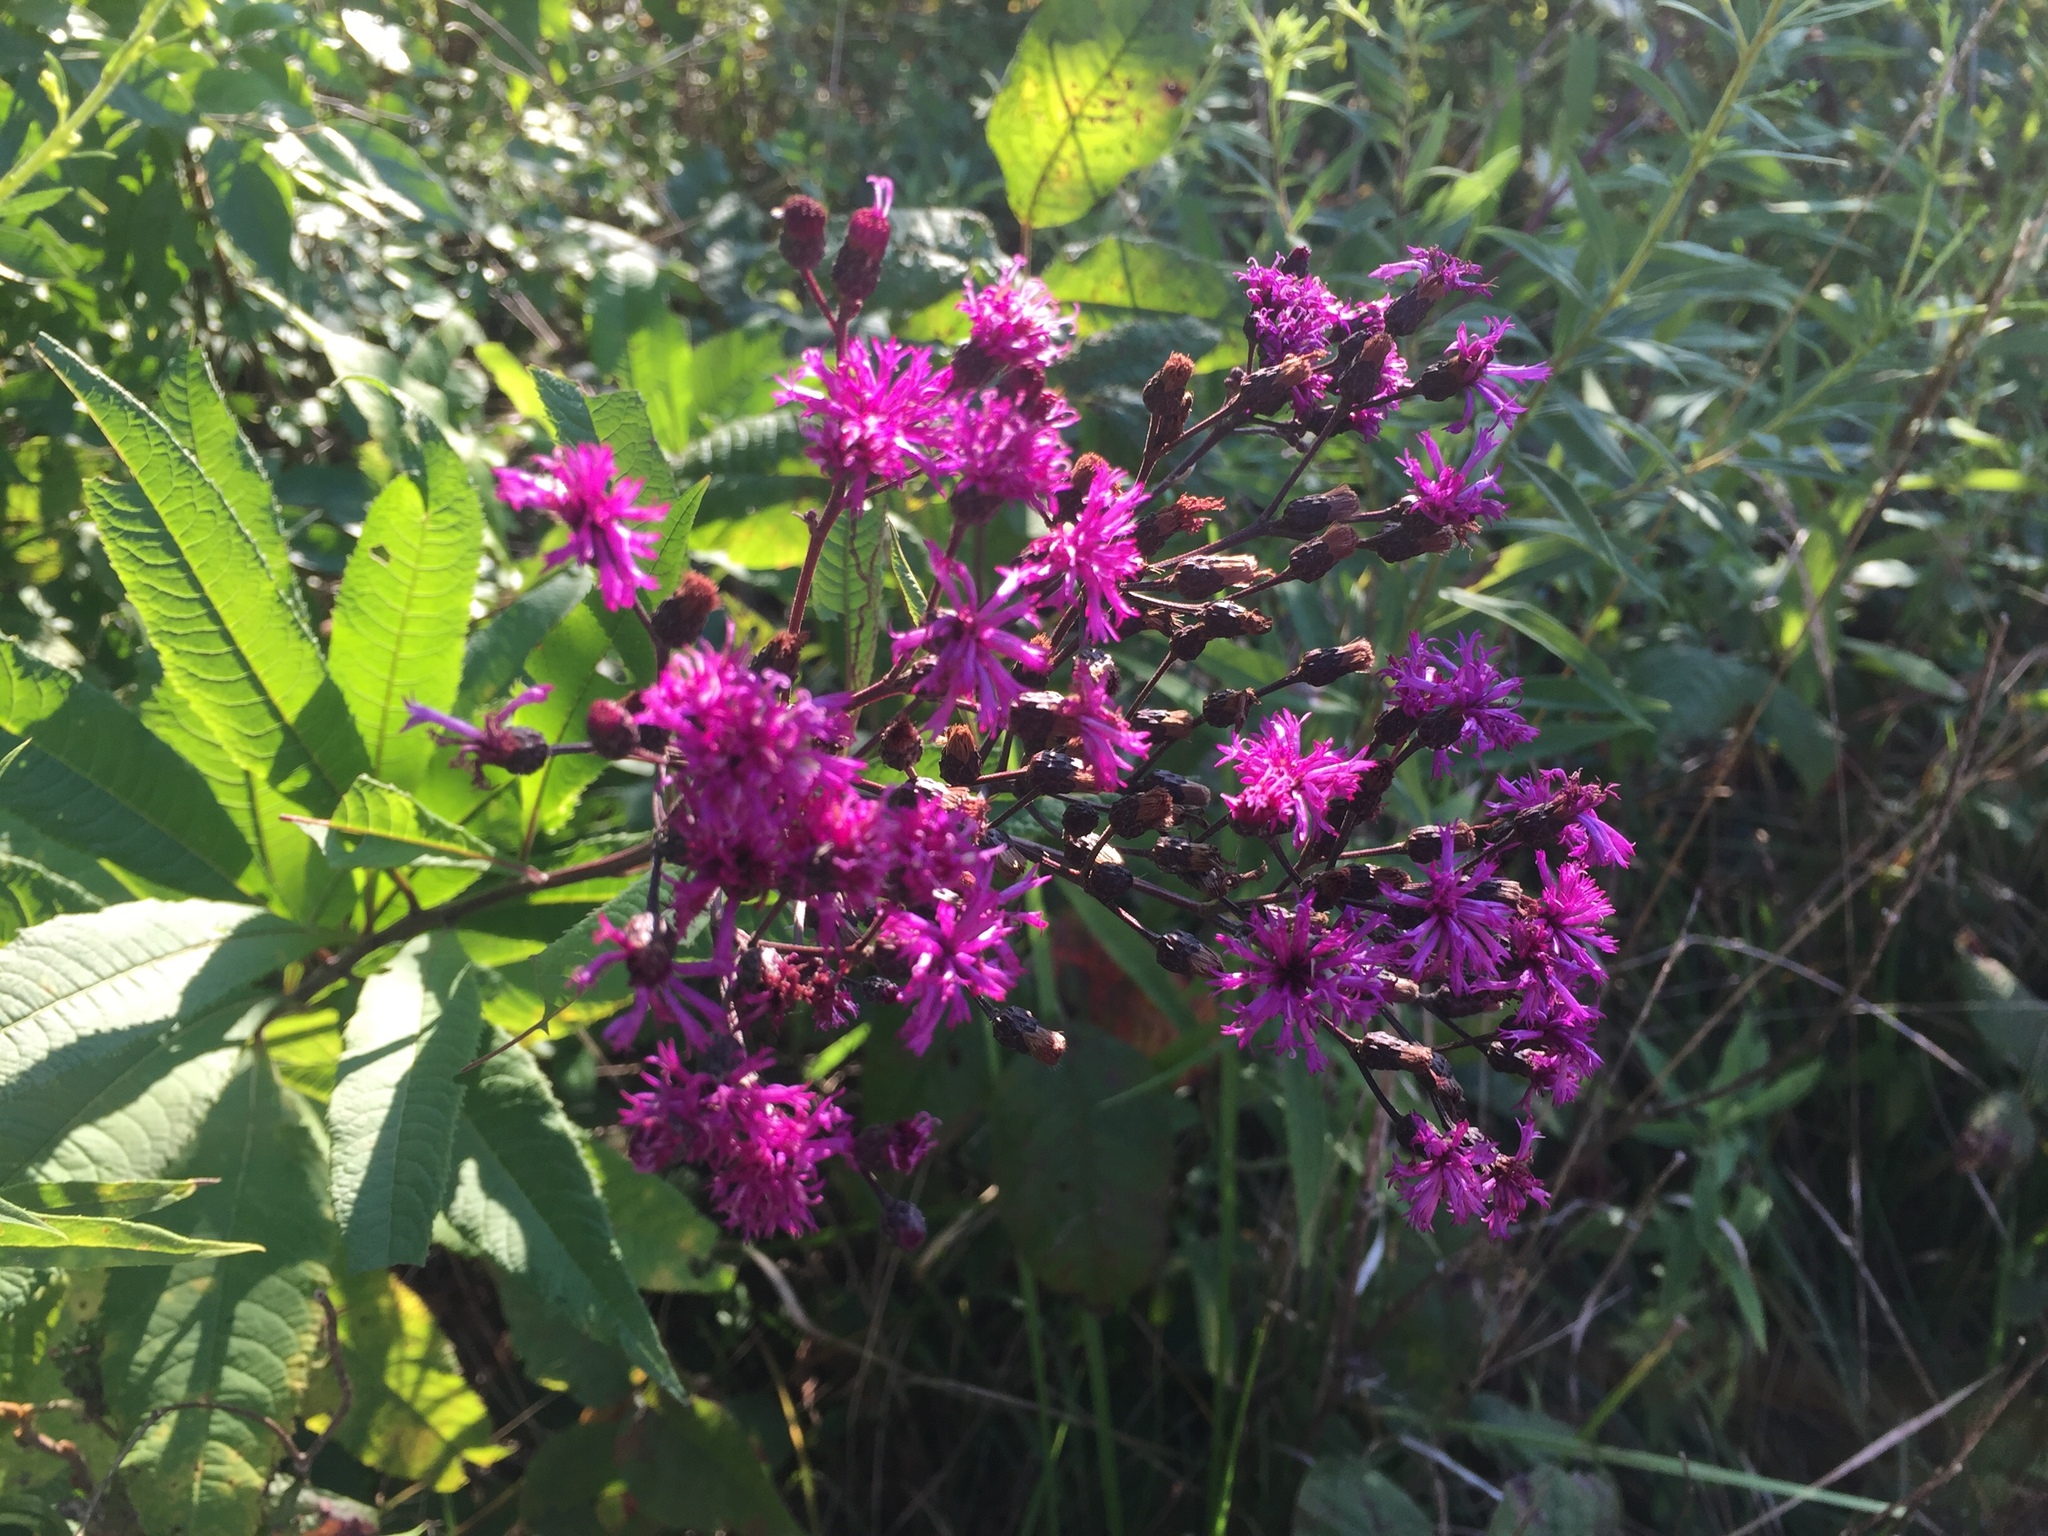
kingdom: Plantae
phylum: Tracheophyta
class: Magnoliopsida
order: Asterales
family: Asteraceae
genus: Vernonia
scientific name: Vernonia gigantea
